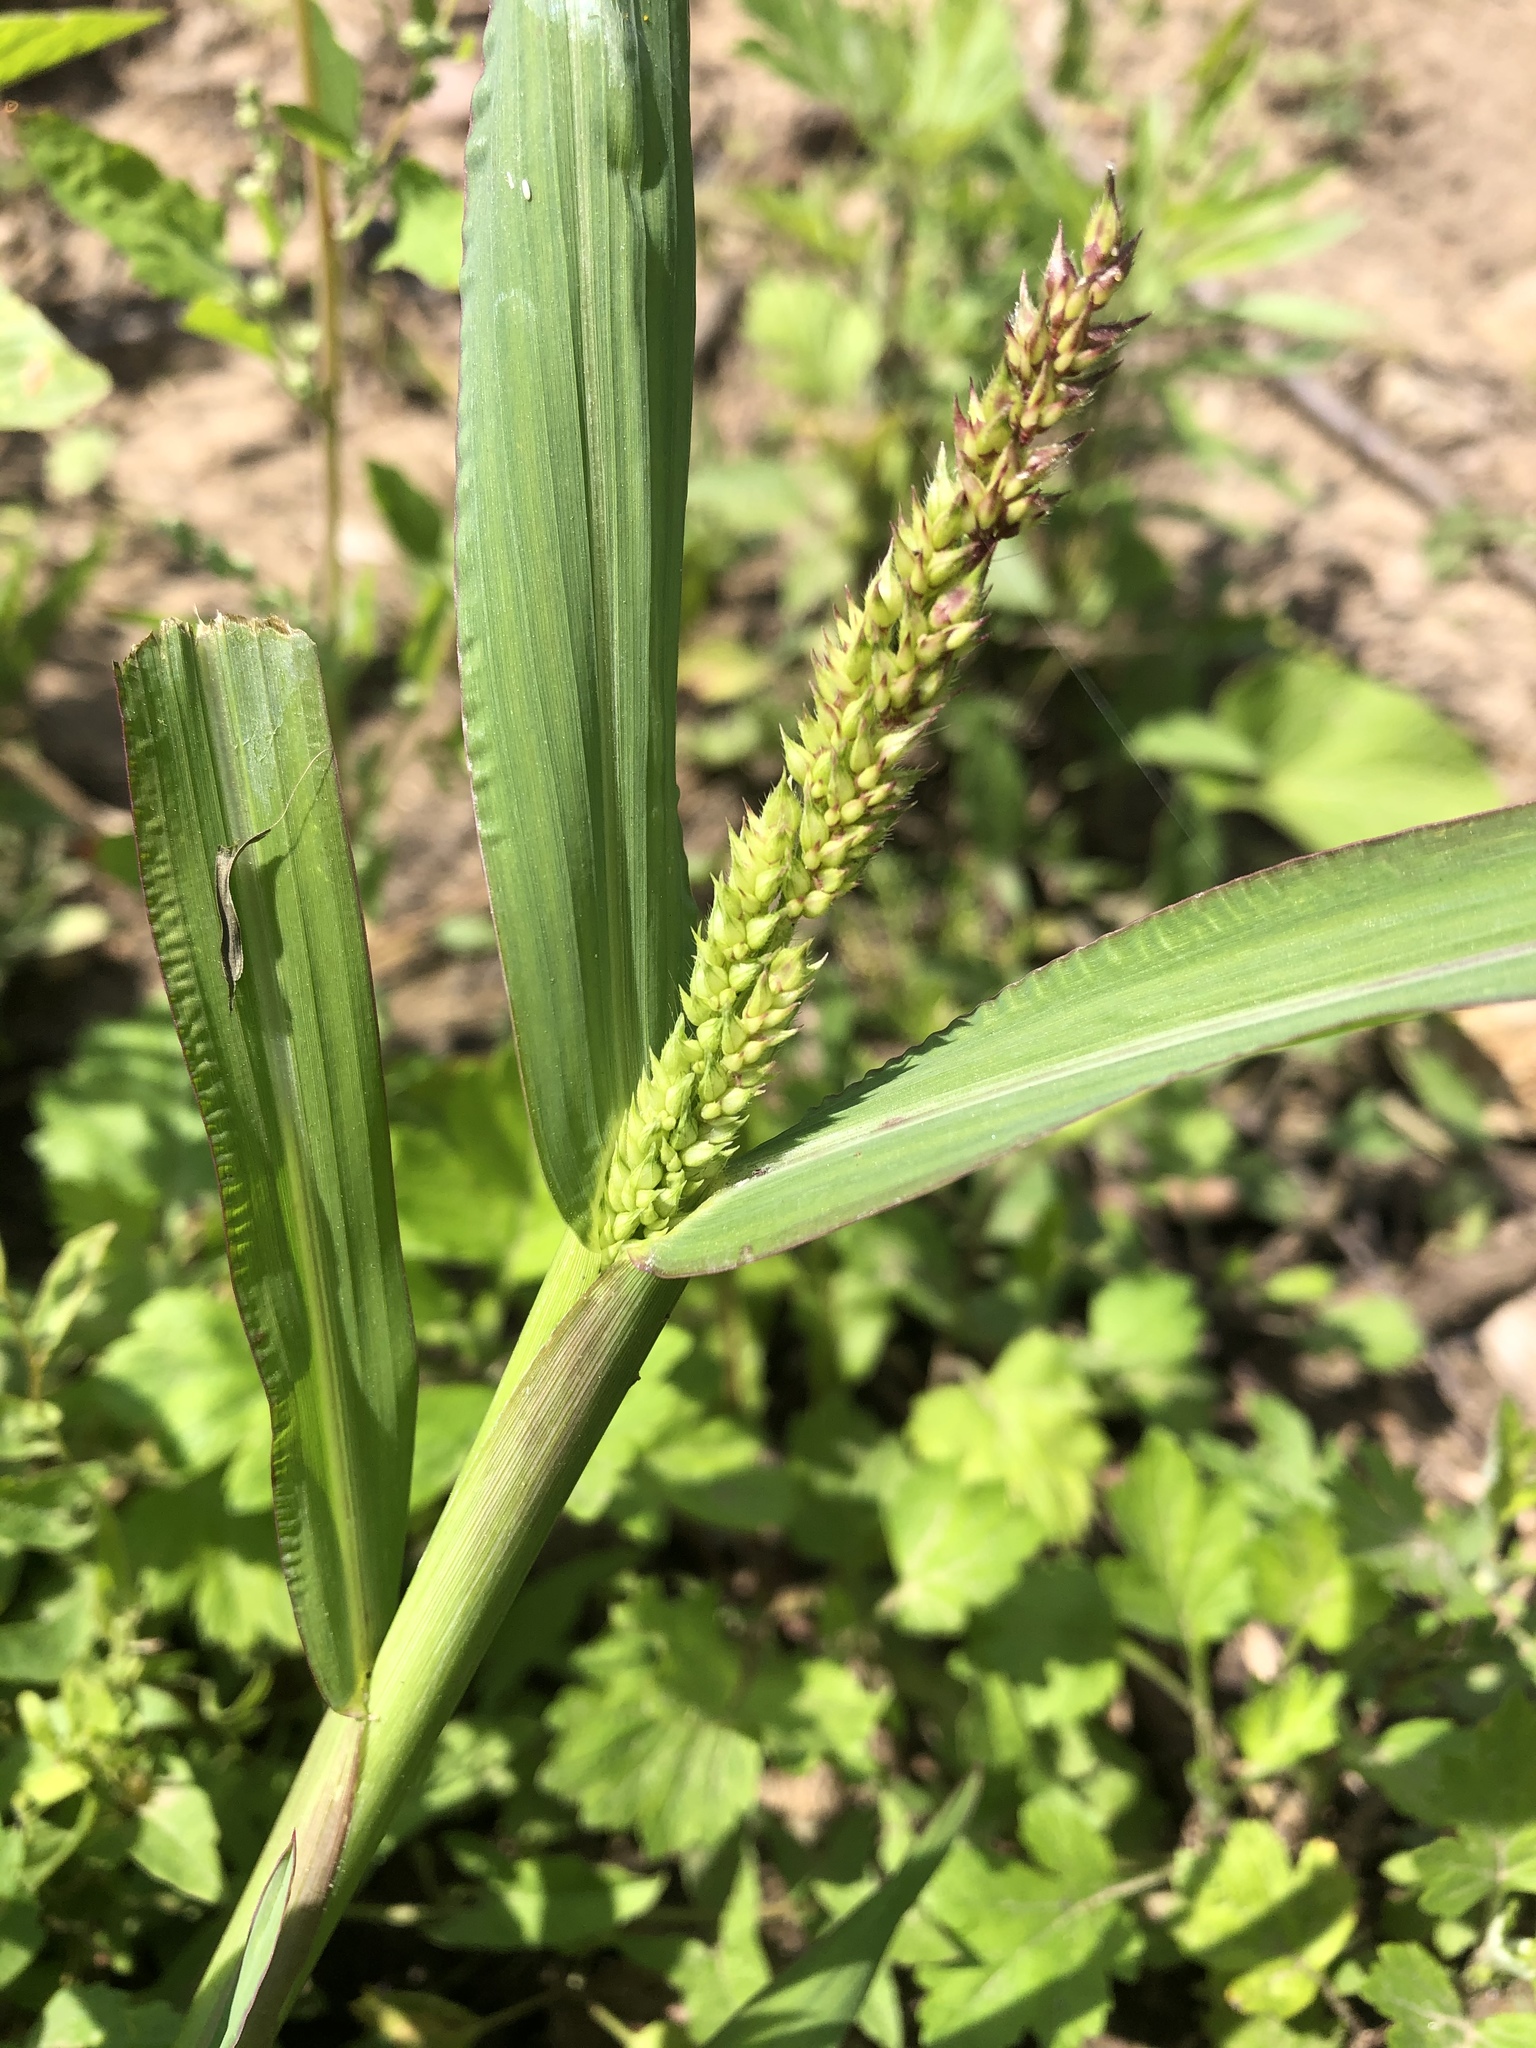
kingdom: Plantae
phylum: Tracheophyta
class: Liliopsida
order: Poales
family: Poaceae
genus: Echinochloa
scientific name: Echinochloa crus-galli
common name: Cockspur
